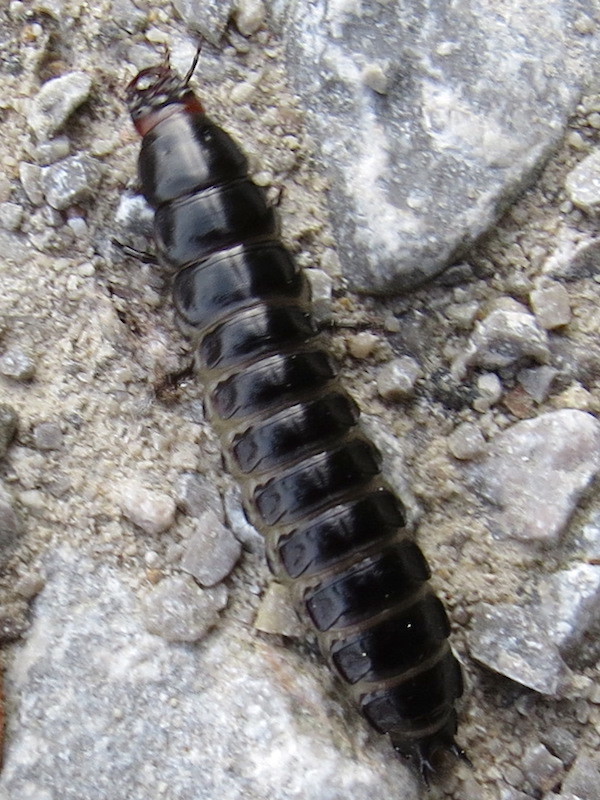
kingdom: Animalia
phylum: Arthropoda
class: Insecta
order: Coleoptera
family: Carabidae
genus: Carabus
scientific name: Carabus purpurascens
